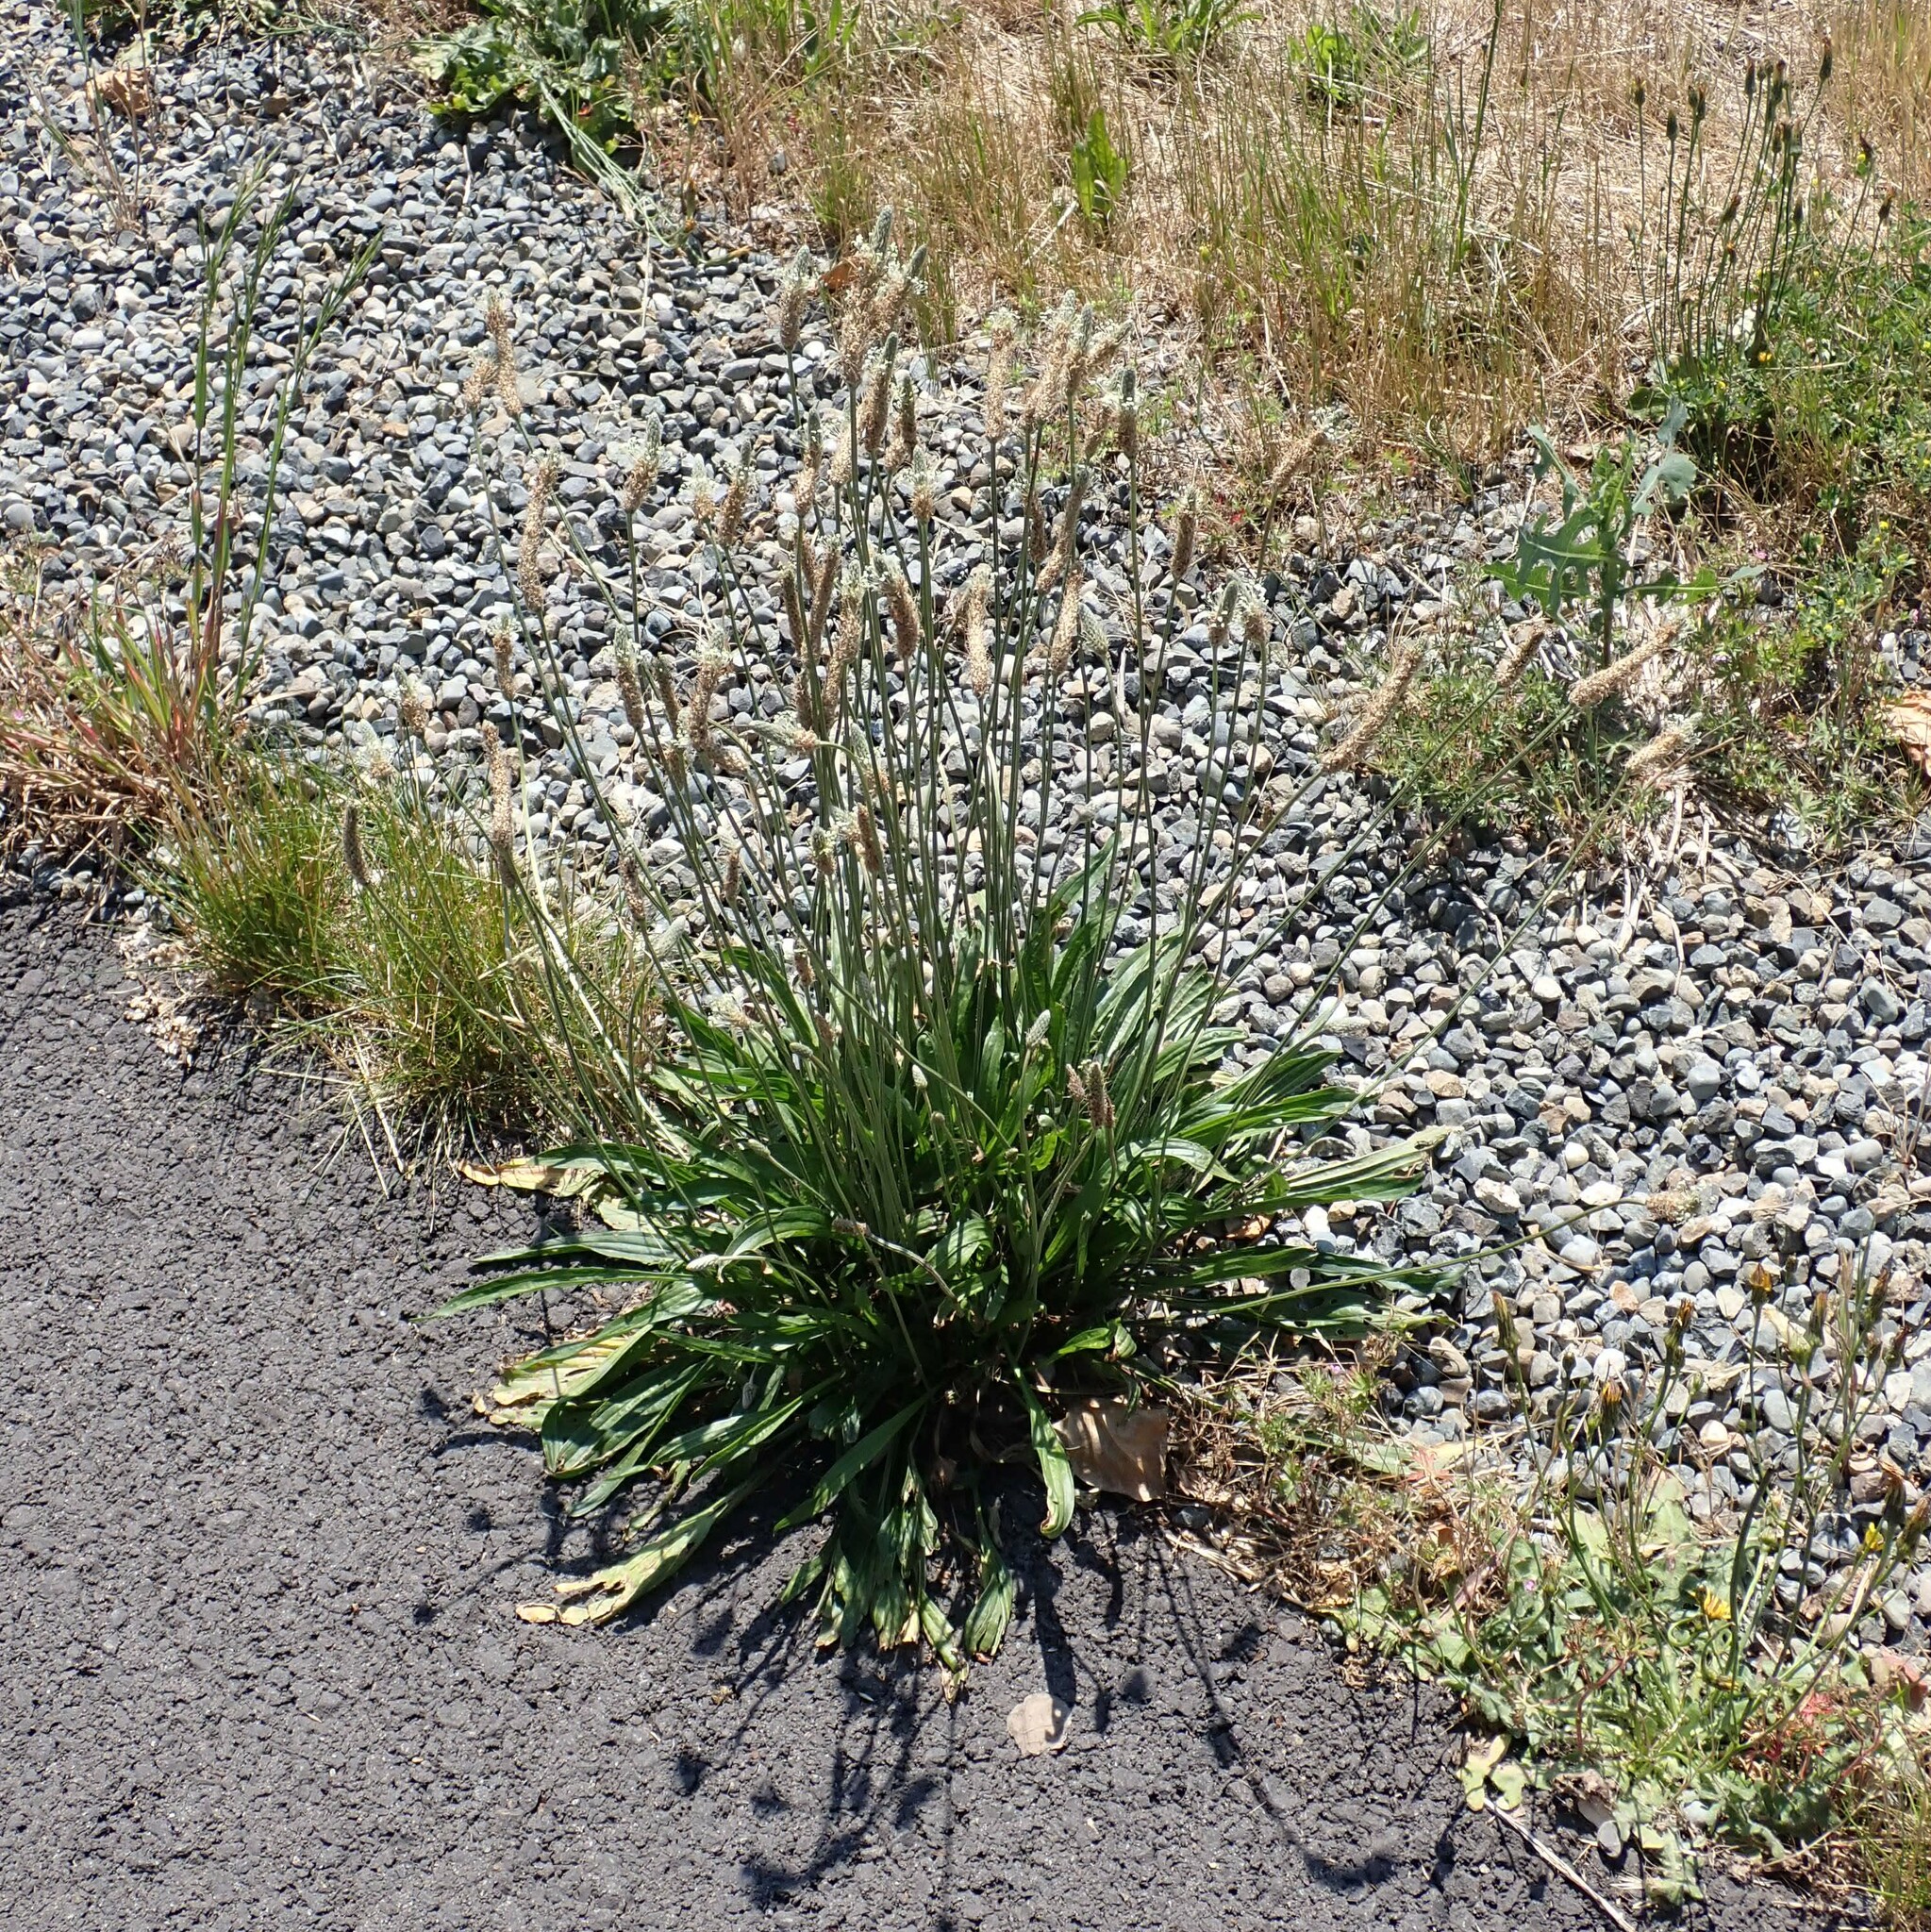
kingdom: Plantae
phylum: Tracheophyta
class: Magnoliopsida
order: Lamiales
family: Plantaginaceae
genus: Plantago
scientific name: Plantago lanceolata
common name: Ribwort plantain
